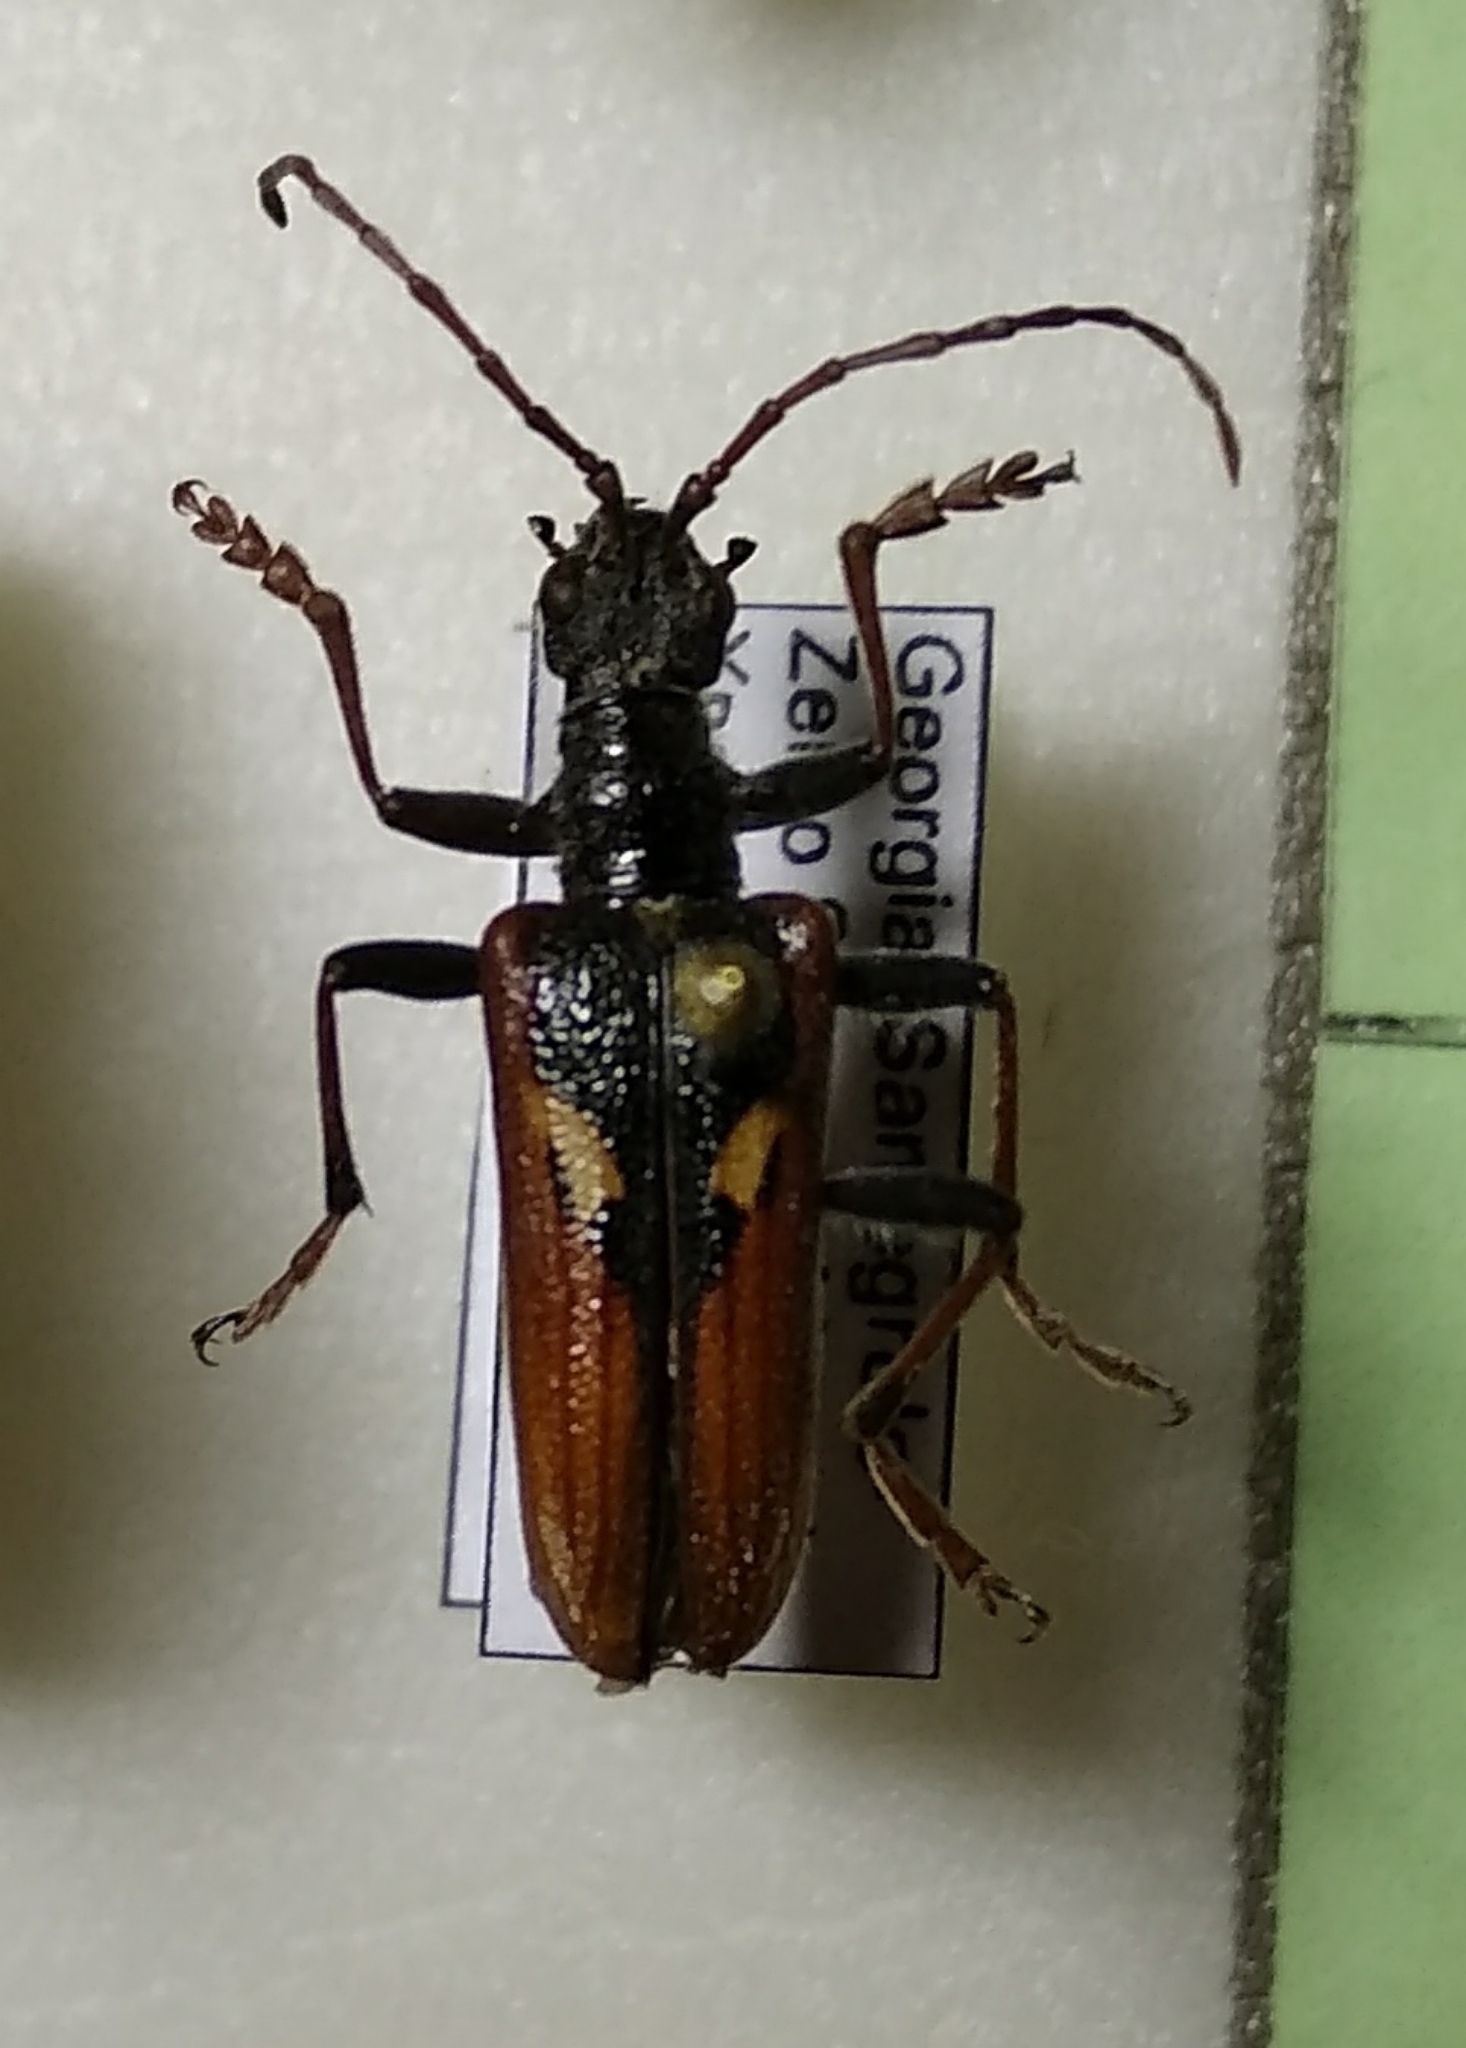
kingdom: Animalia
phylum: Arthropoda
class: Insecta
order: Coleoptera
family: Cerambycidae
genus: Rhagium
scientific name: Rhagium bifasciatum
